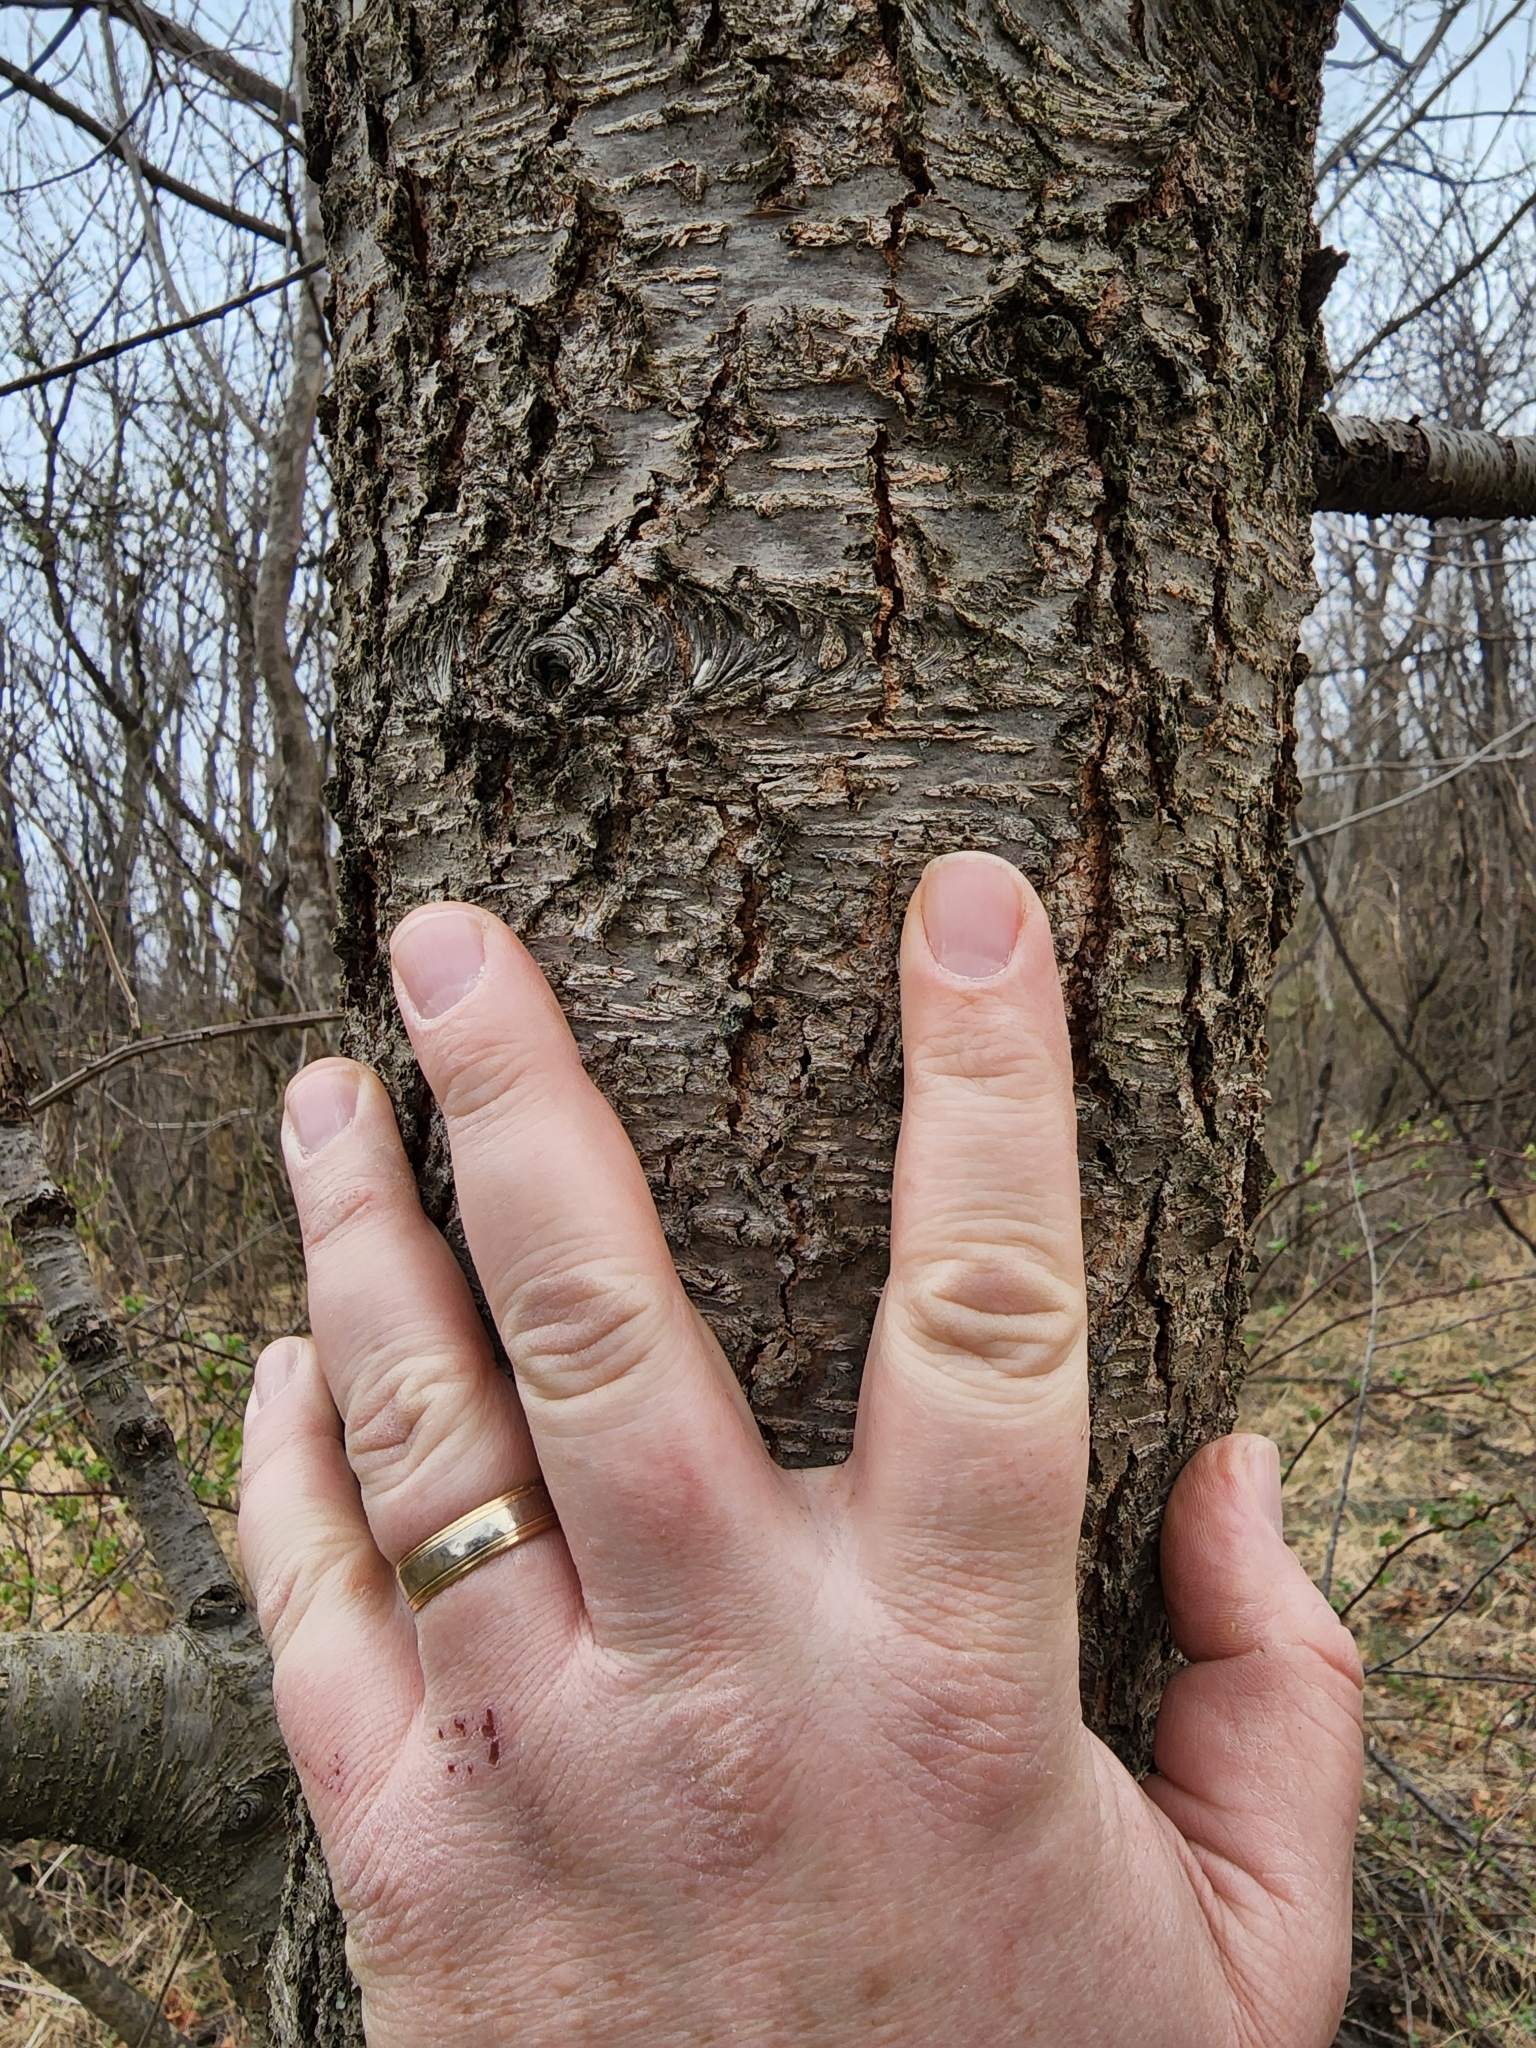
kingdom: Fungi
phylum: Ascomycota
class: Dothideomycetes
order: Venturiales
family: Venturiaceae
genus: Apiosporina
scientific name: Apiosporina morbosa
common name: Black knot
